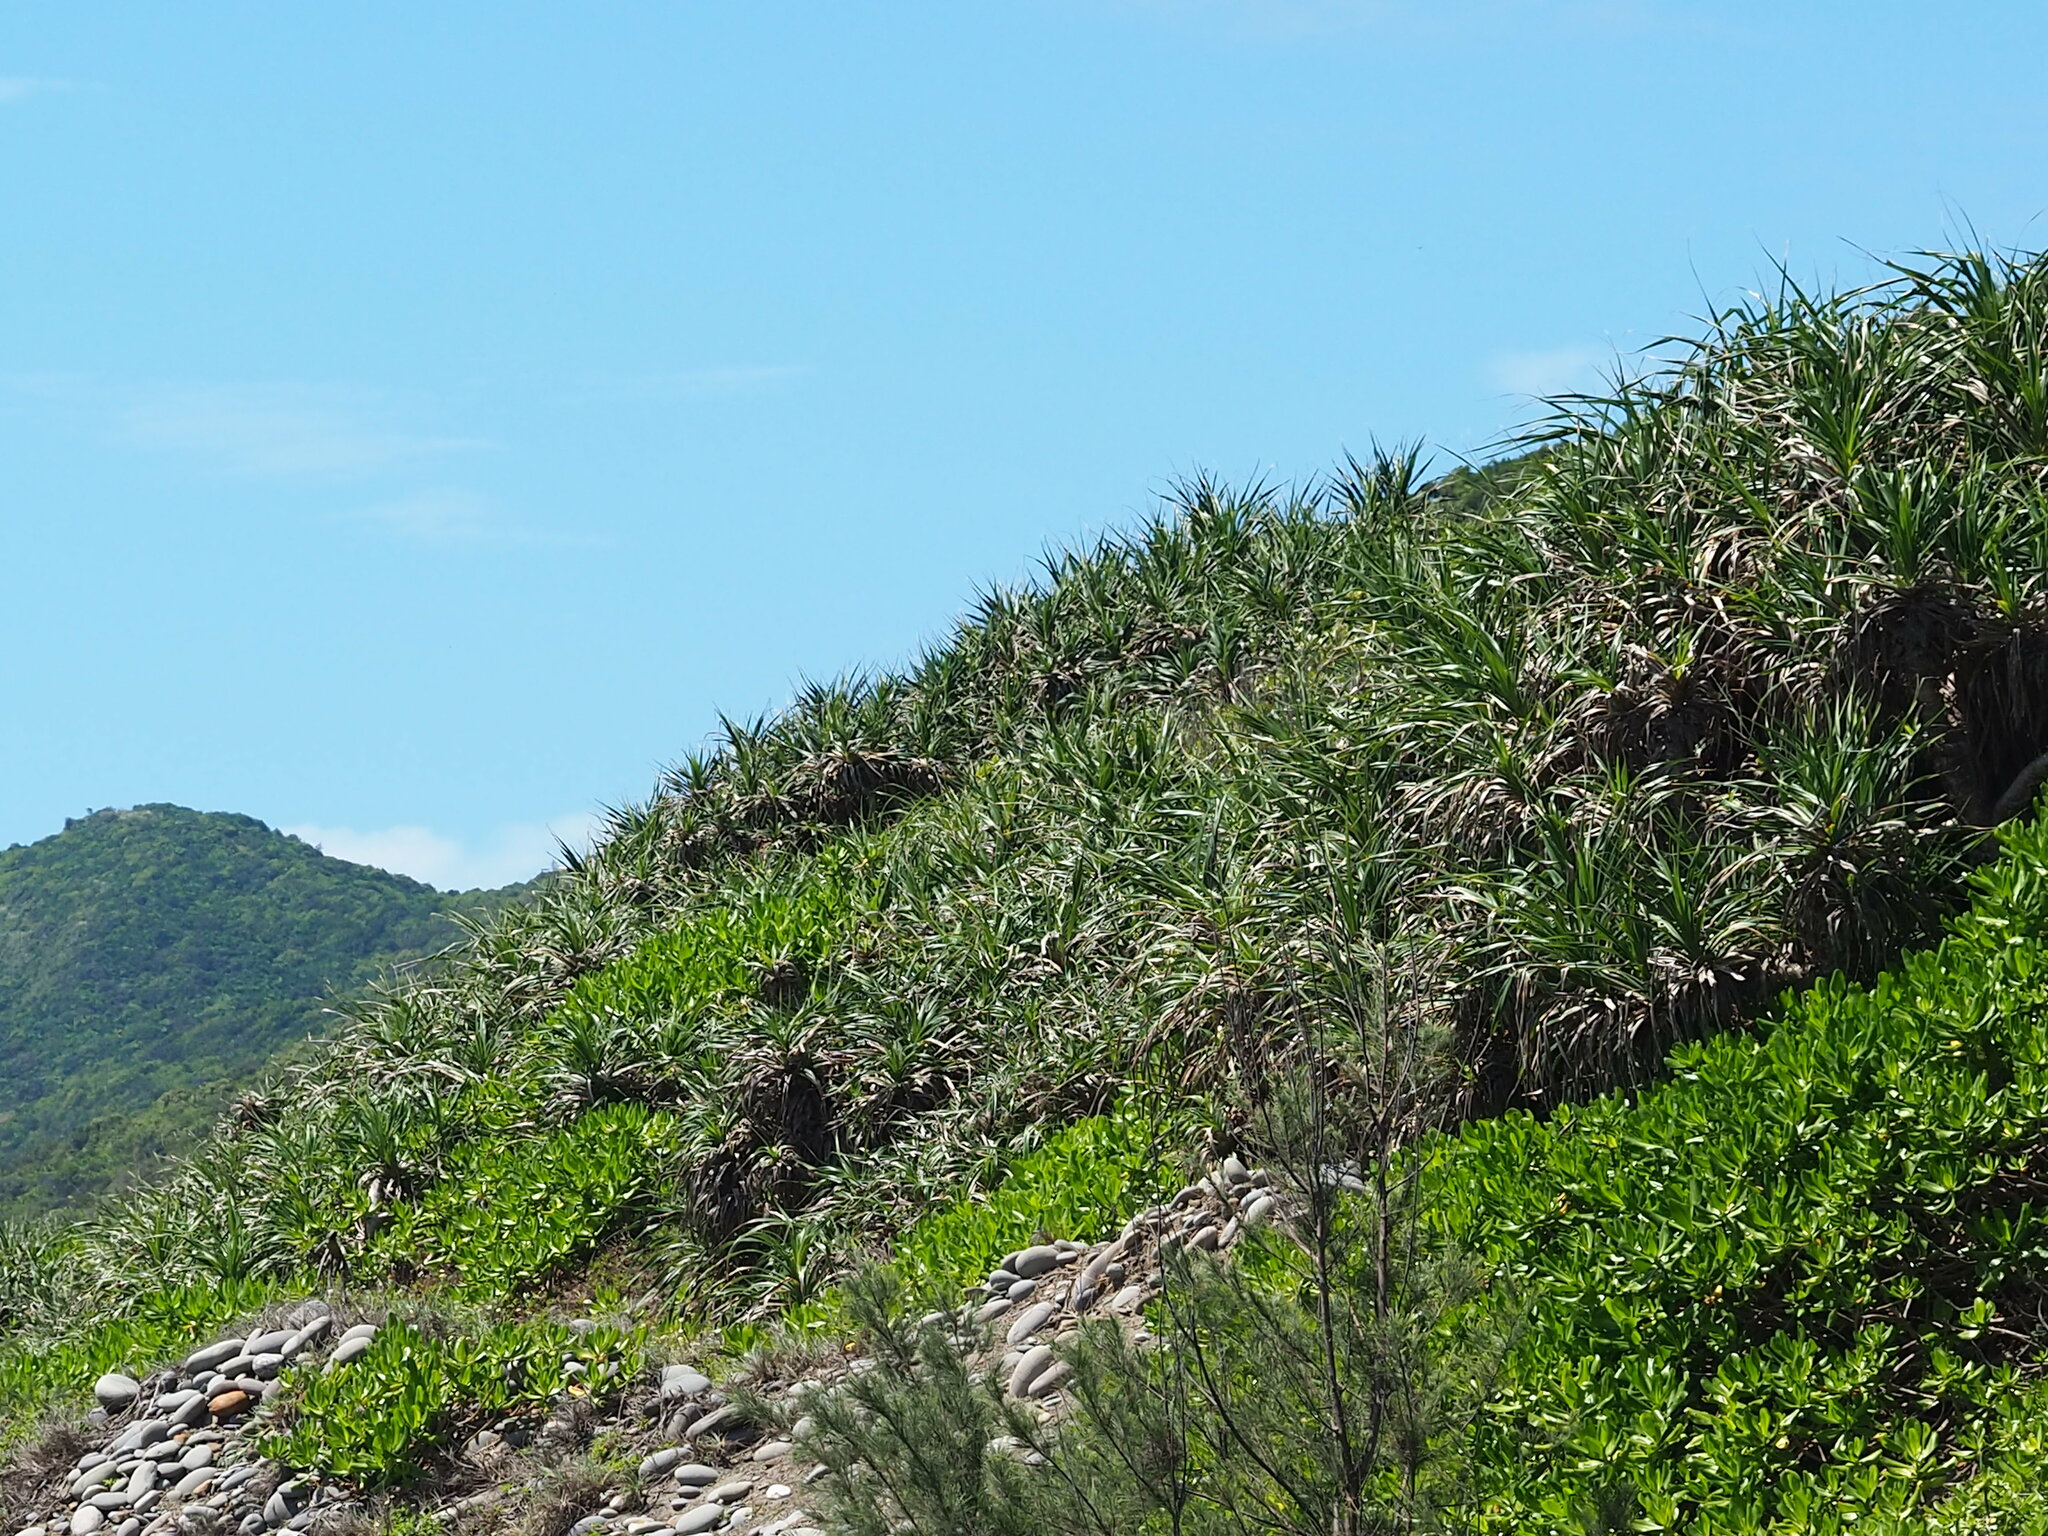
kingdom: Plantae
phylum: Tracheophyta
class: Liliopsida
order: Pandanales
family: Pandanaceae
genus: Pandanus
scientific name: Pandanus odorifer
